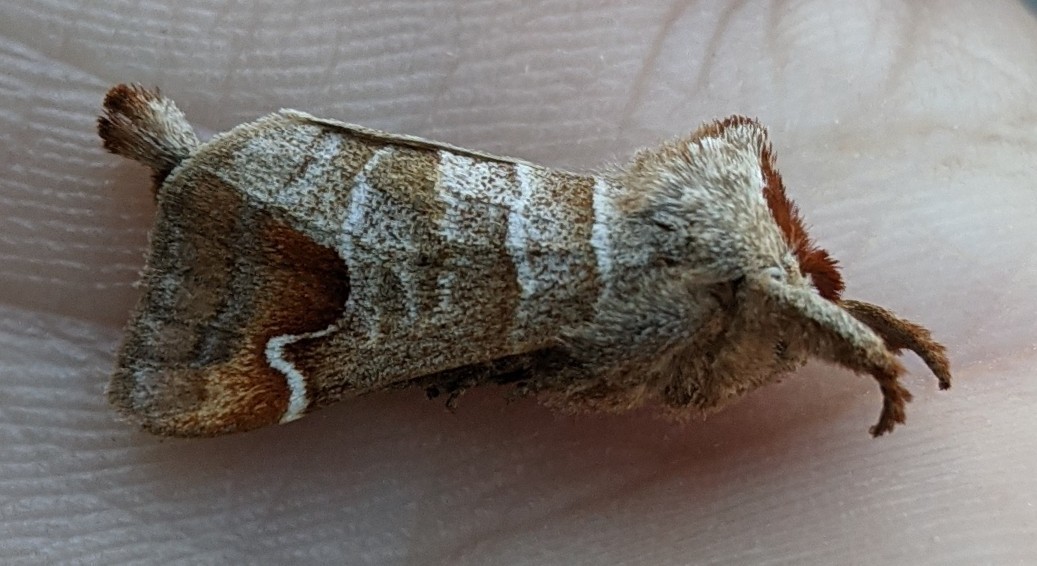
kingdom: Animalia
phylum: Arthropoda
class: Insecta
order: Lepidoptera
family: Notodontidae
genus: Clostera
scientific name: Clostera albosigma
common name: Sigmoid prominent
